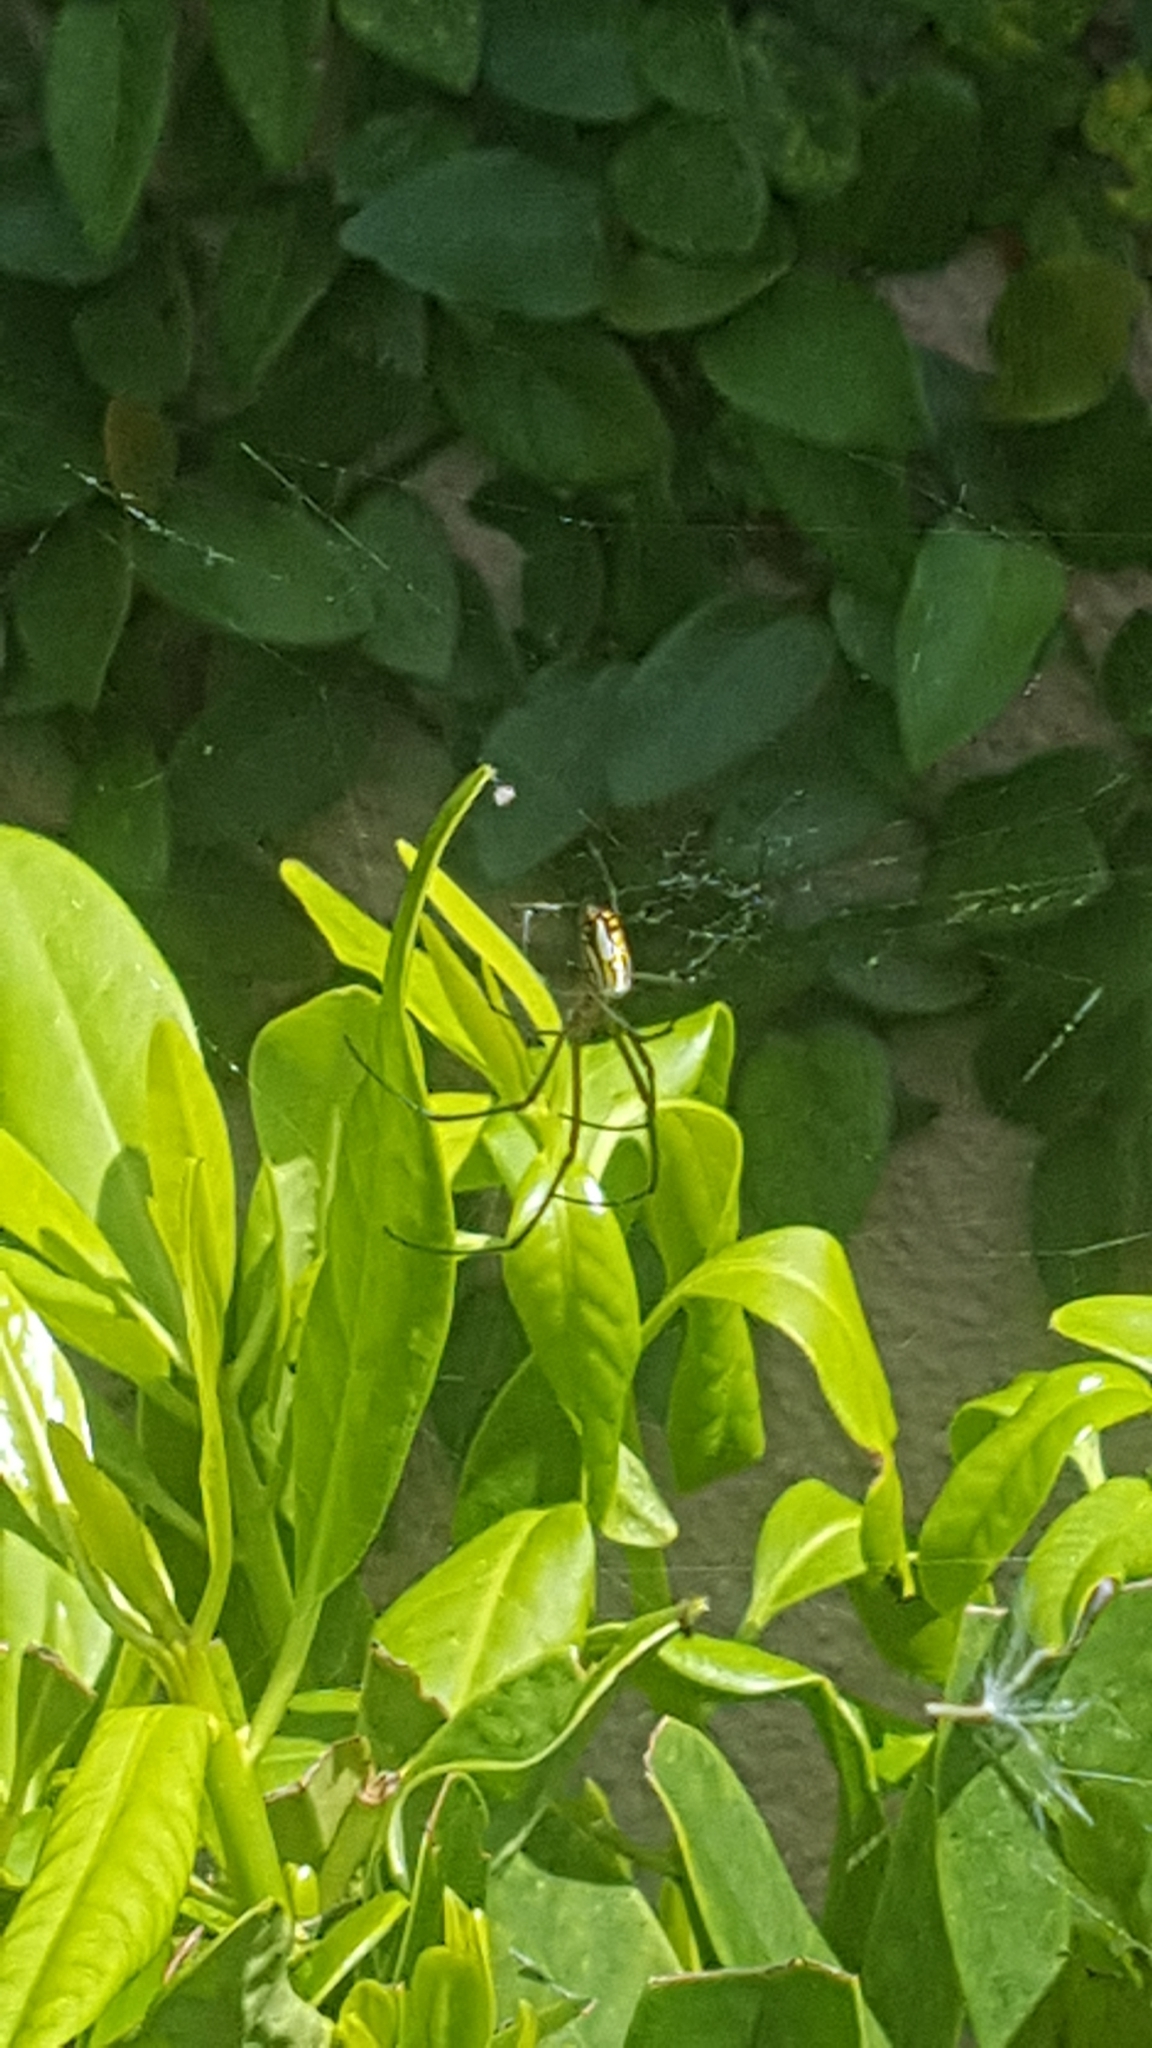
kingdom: Animalia
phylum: Arthropoda
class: Arachnida
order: Araneae
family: Tetragnathidae
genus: Leucauge
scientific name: Leucauge argyra
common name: Longjawed orb weavers
